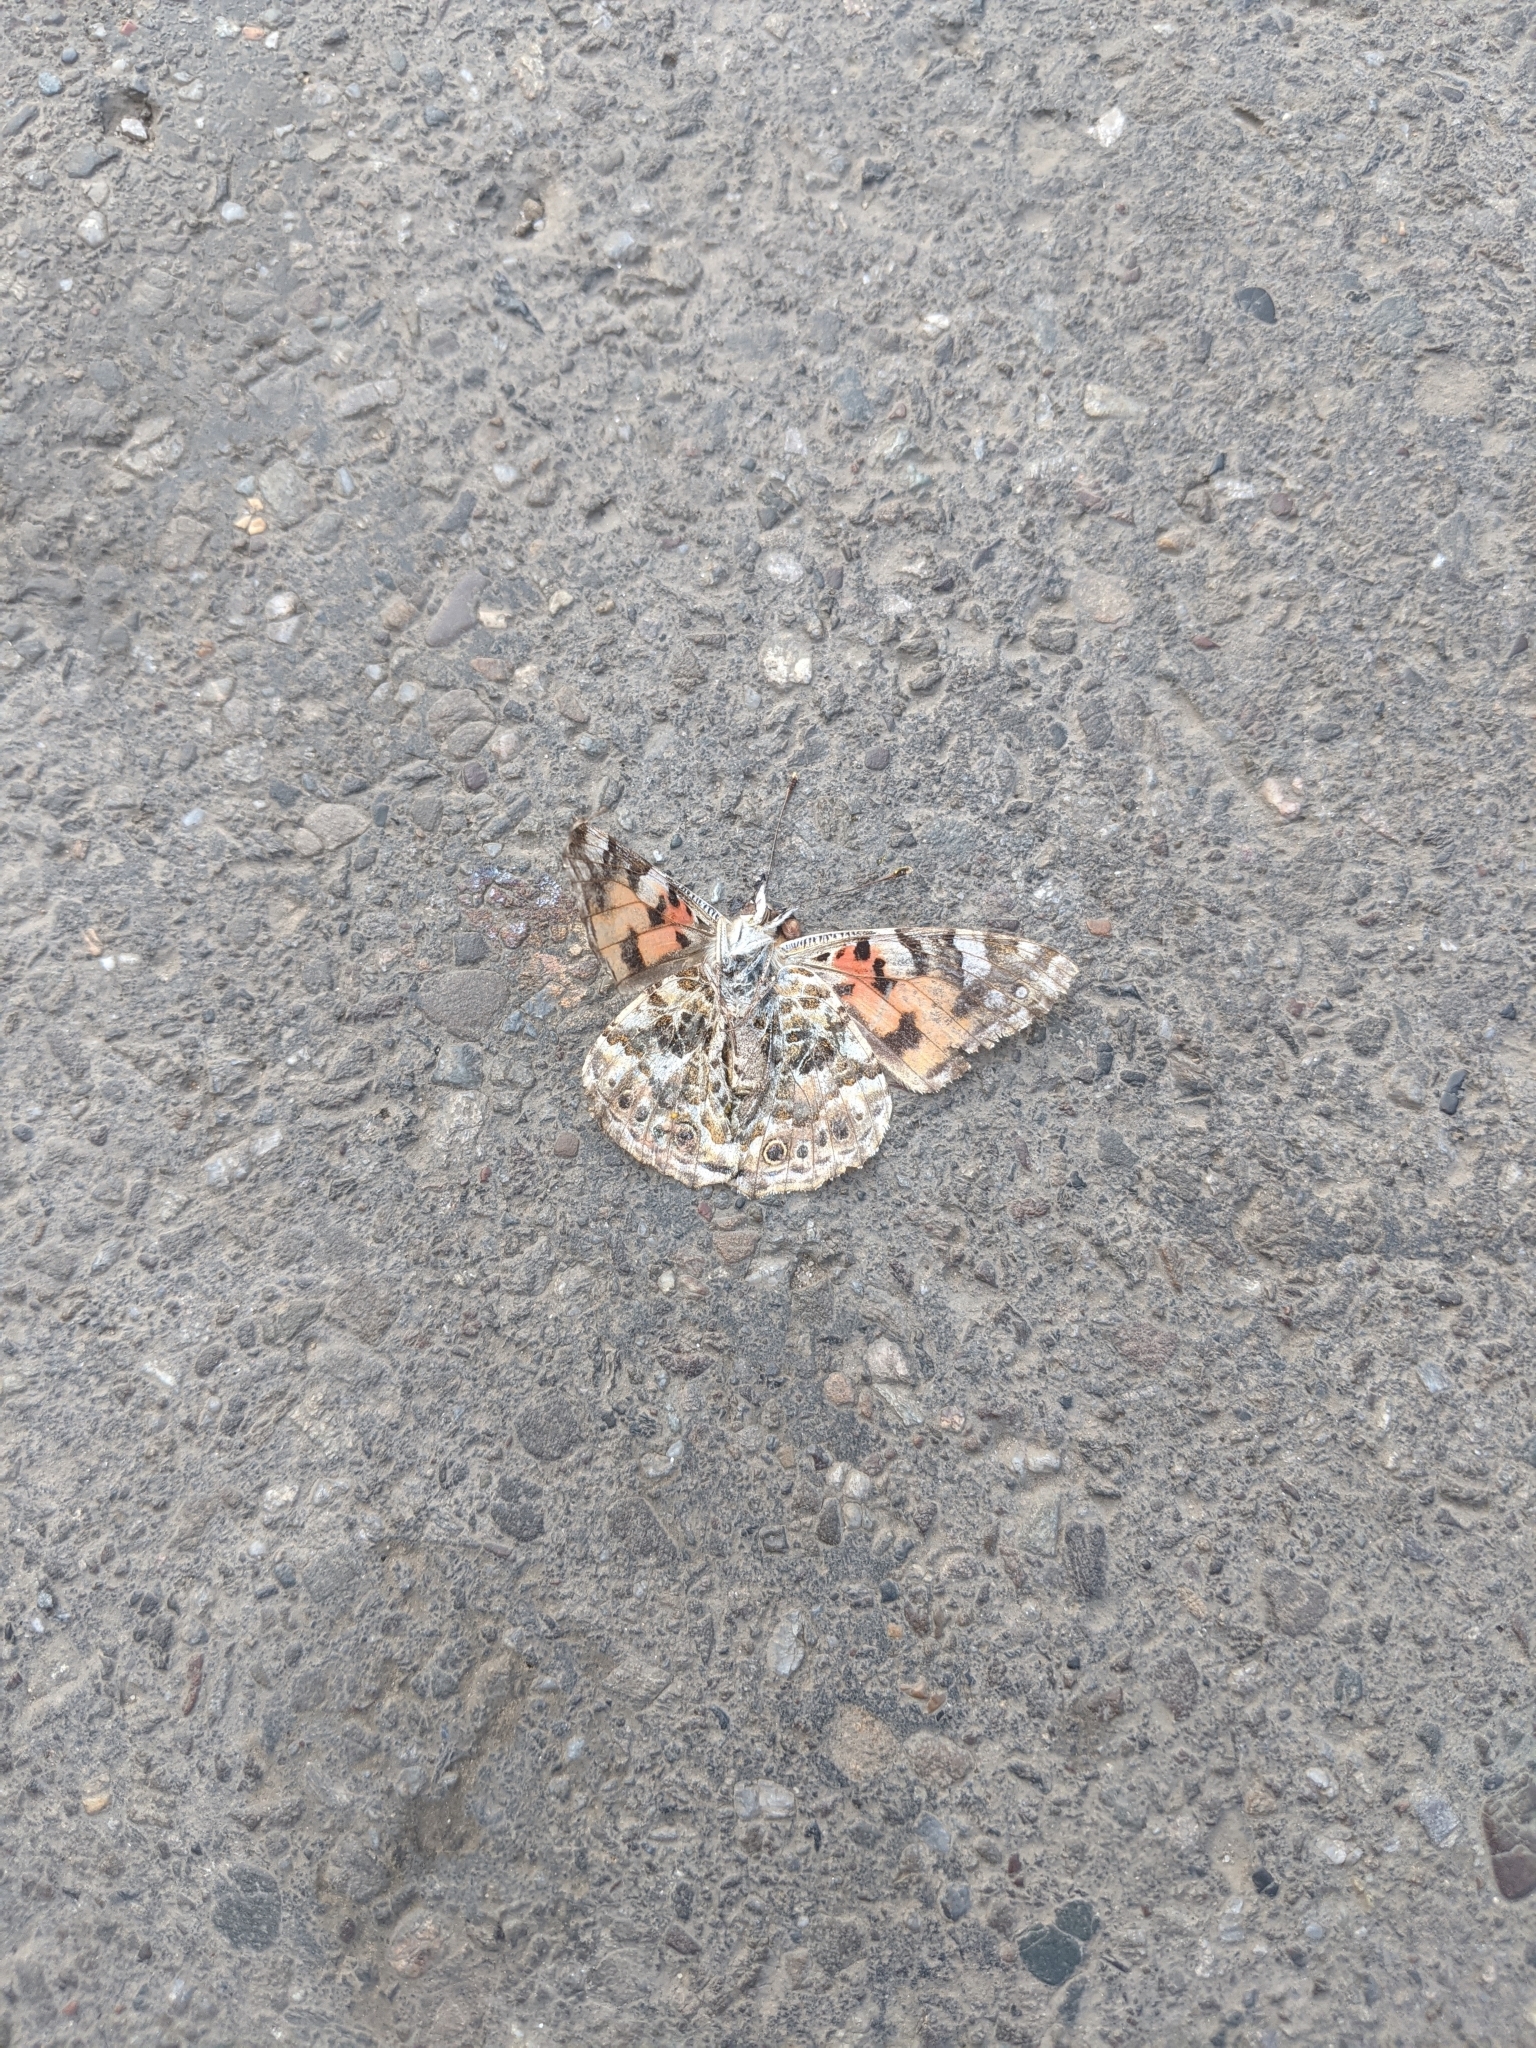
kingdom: Animalia
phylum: Arthropoda
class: Insecta
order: Lepidoptera
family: Nymphalidae
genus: Vanessa
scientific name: Vanessa cardui
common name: Painted lady
